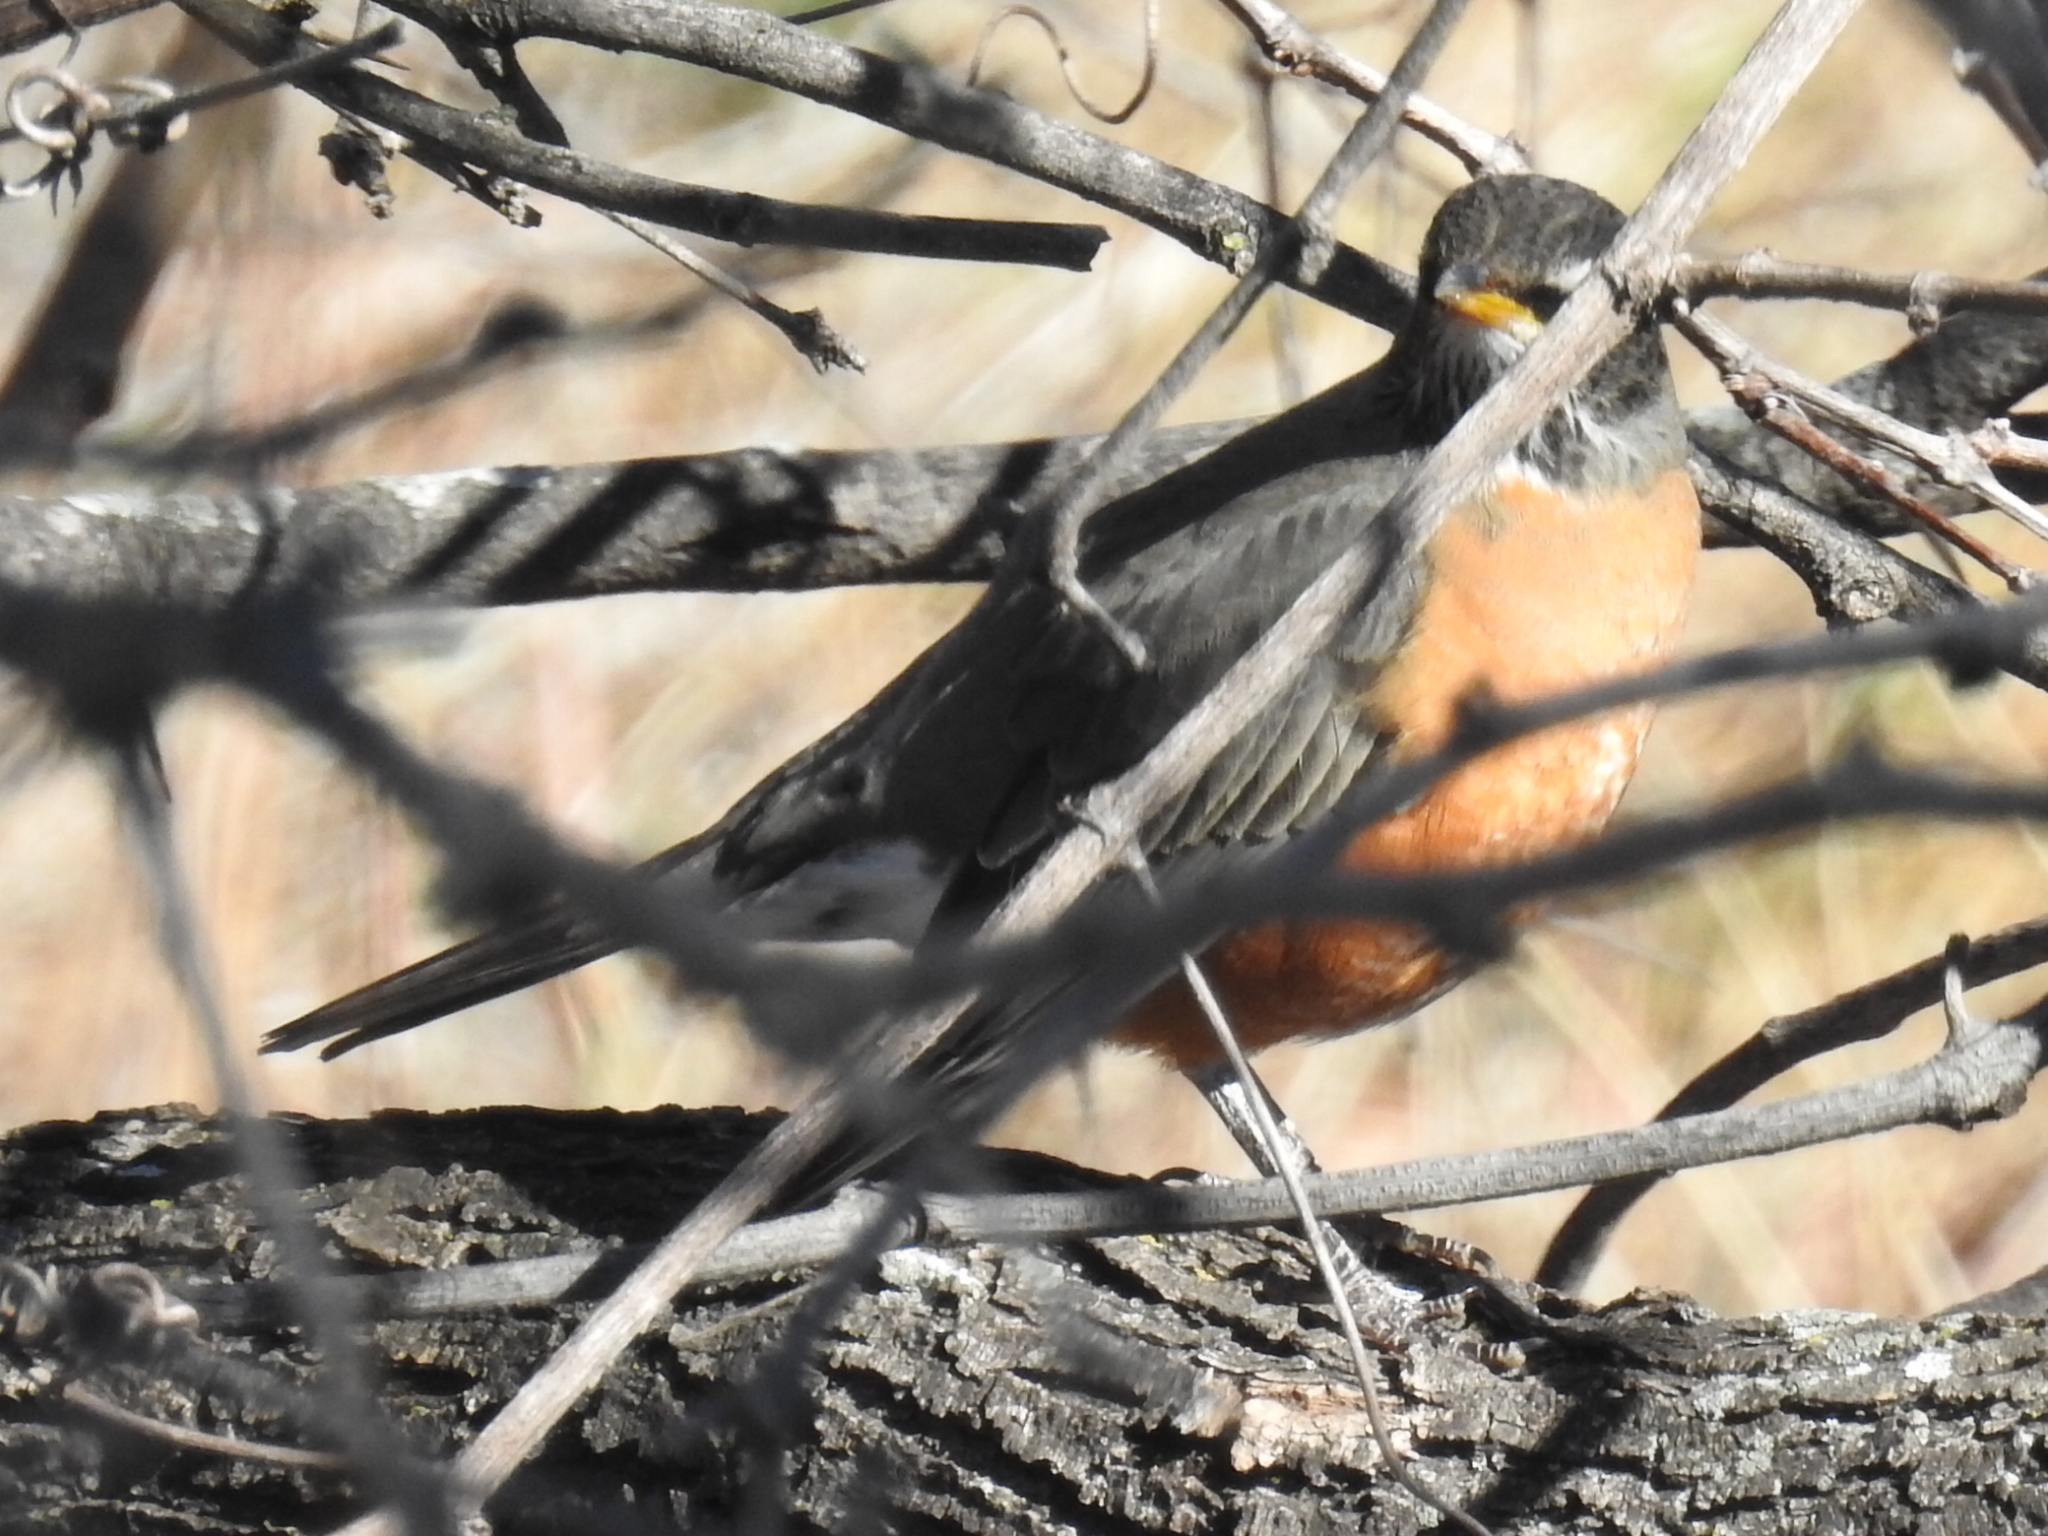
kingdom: Animalia
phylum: Chordata
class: Aves
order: Passeriformes
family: Turdidae
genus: Turdus
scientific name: Turdus migratorius
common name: American robin
